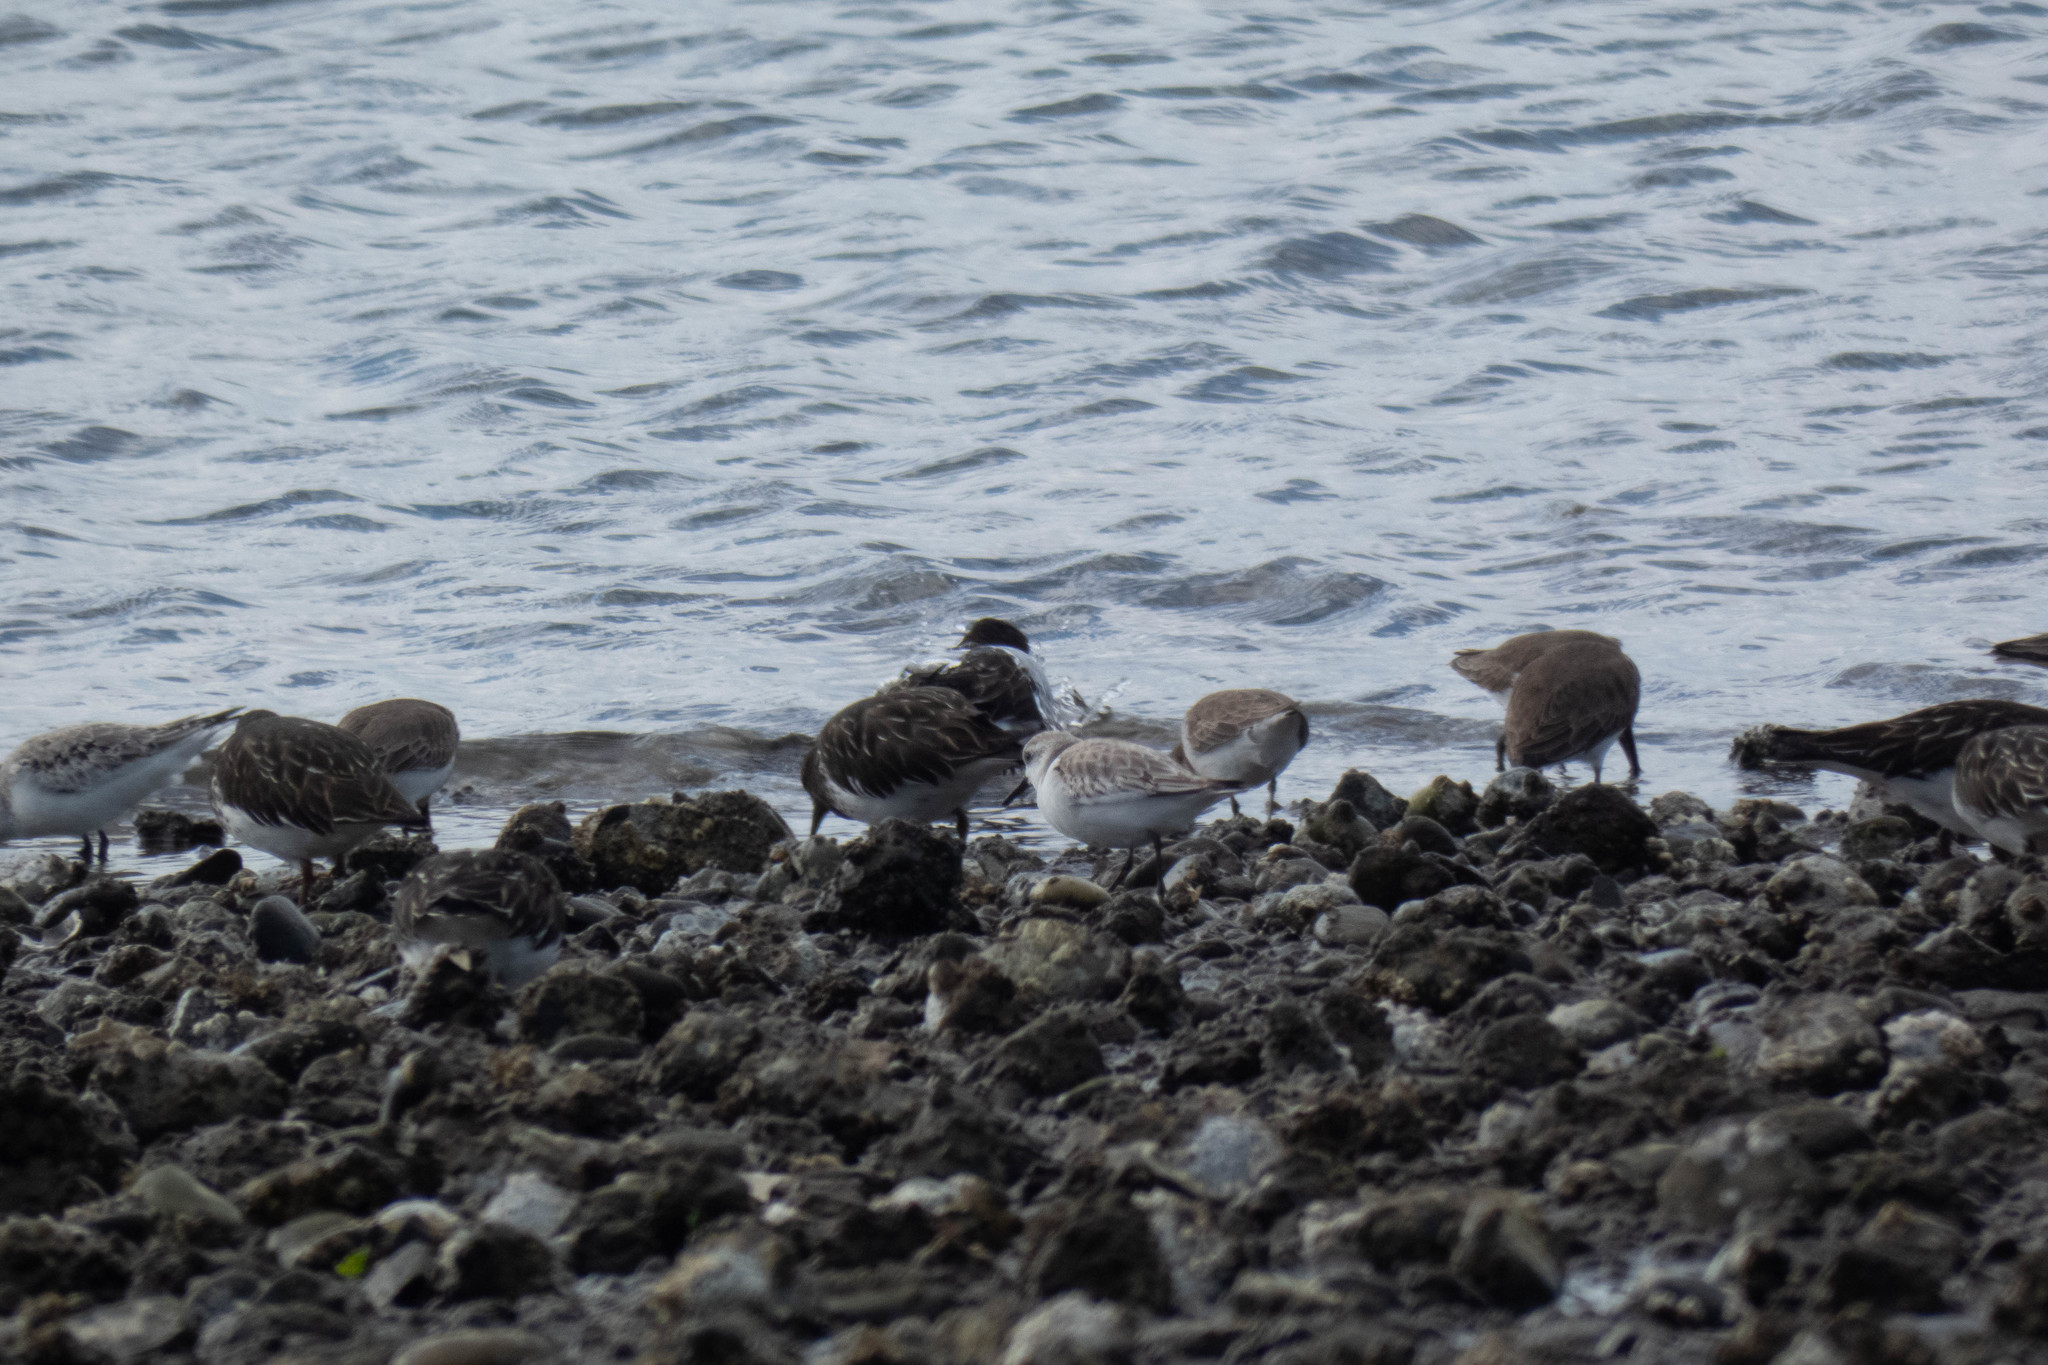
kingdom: Animalia
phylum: Chordata
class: Aves
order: Charadriiformes
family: Scolopacidae
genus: Arenaria
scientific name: Arenaria melanocephala
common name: Black turnstone
